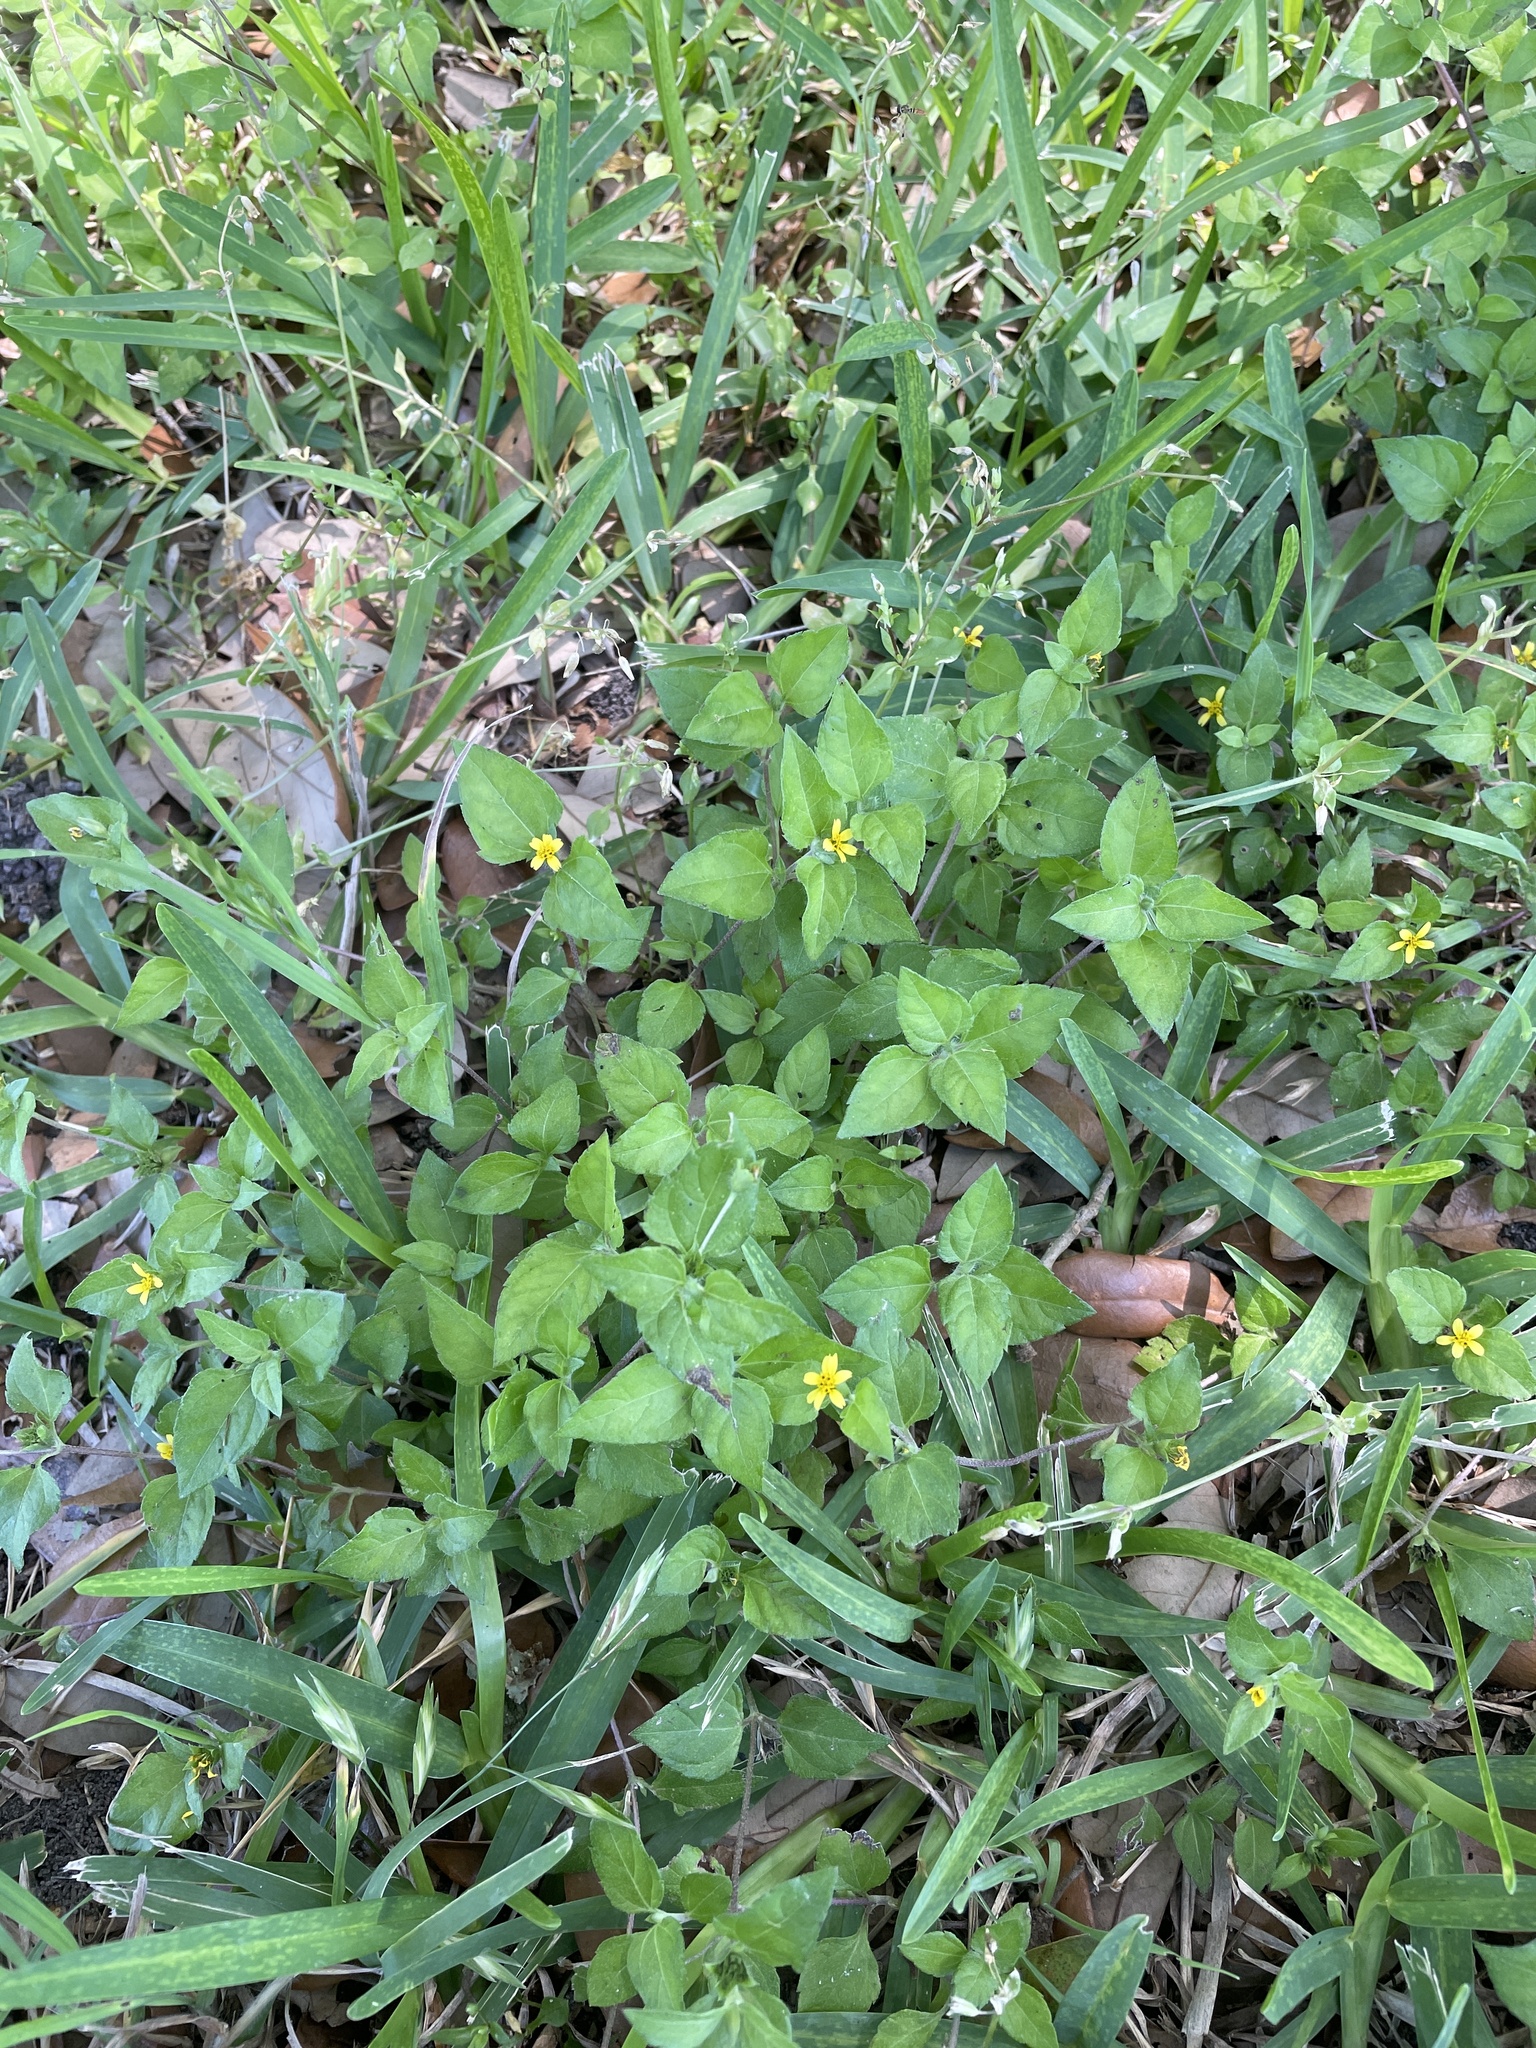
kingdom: Plantae
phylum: Tracheophyta
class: Magnoliopsida
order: Asterales
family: Asteraceae
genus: Calyptocarpus
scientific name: Calyptocarpus vialis
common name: Straggler daisy
